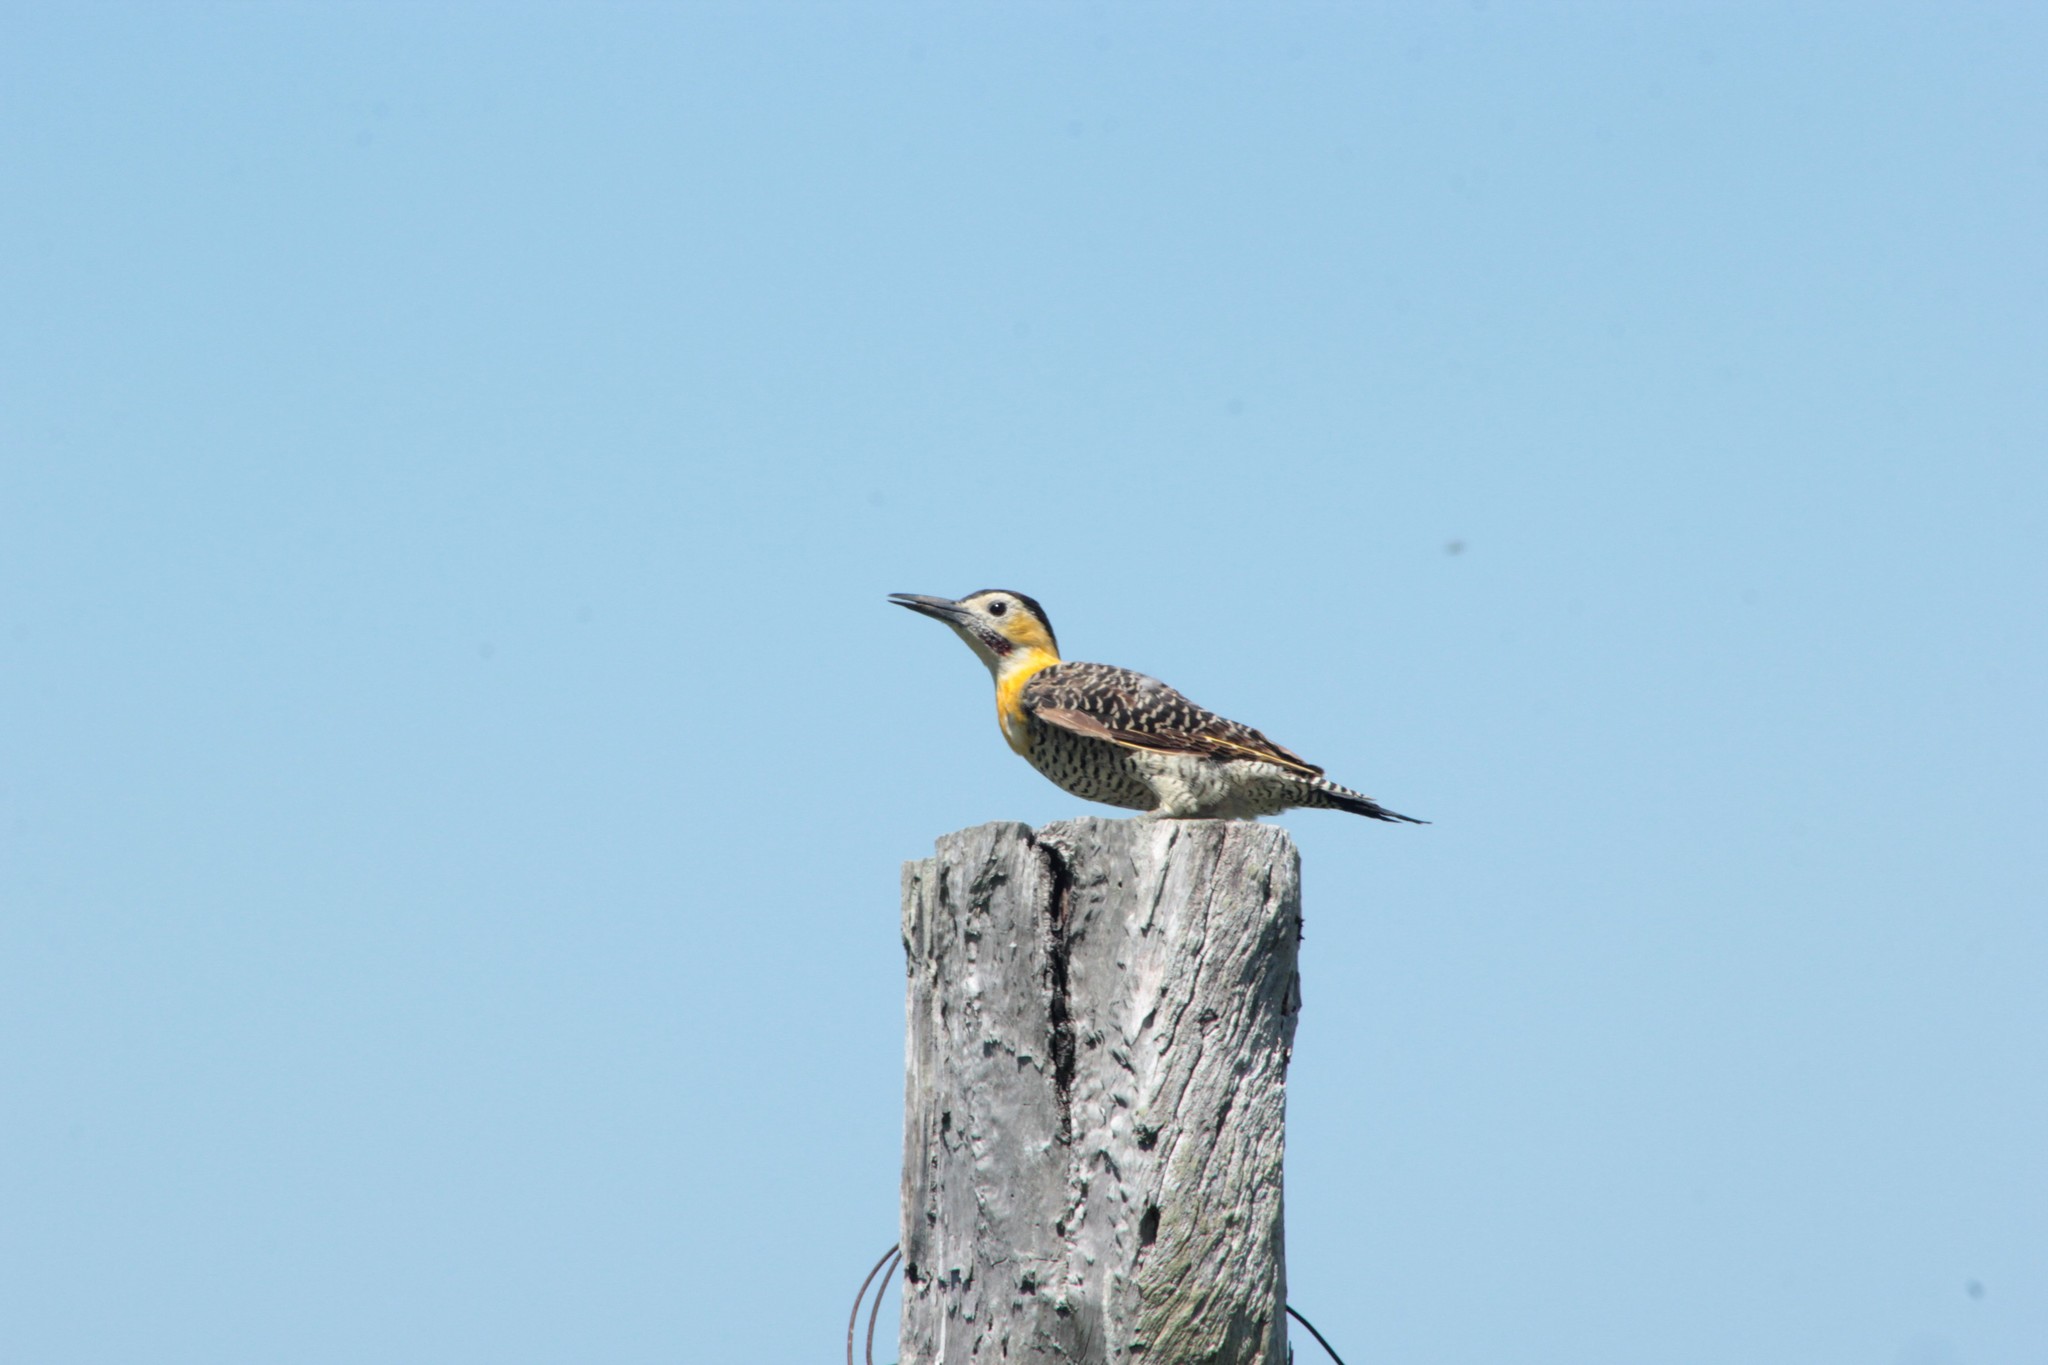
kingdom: Animalia
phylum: Chordata
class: Aves
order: Piciformes
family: Picidae
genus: Colaptes
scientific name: Colaptes campestris
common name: Campo flicker
